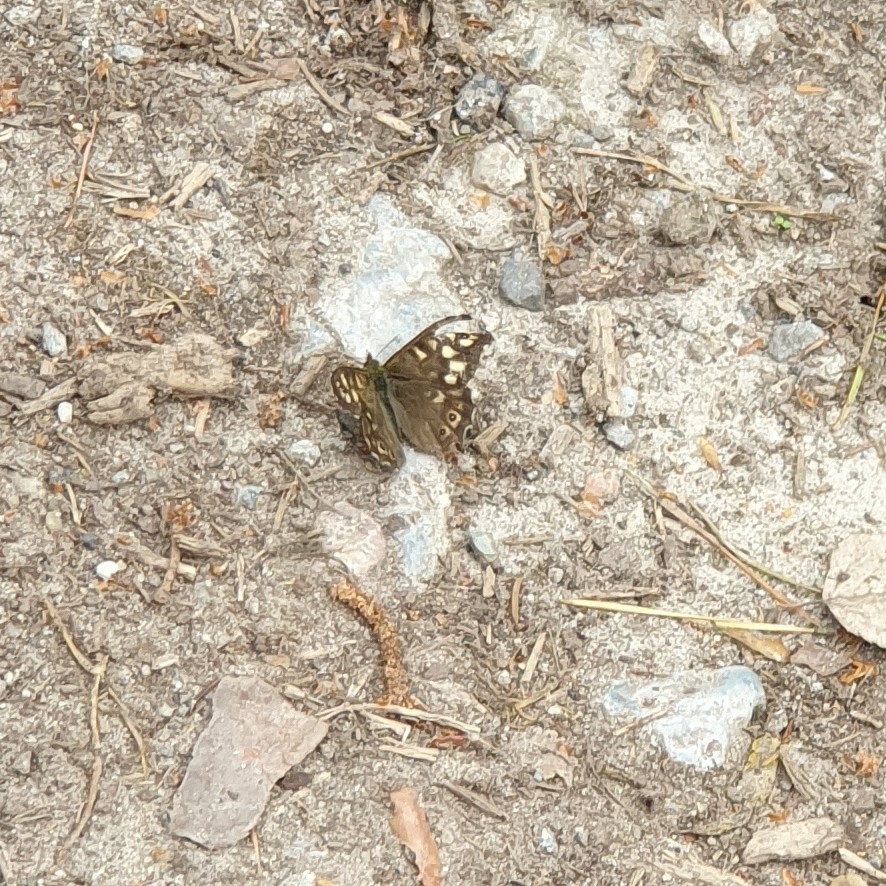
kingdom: Animalia
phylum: Arthropoda
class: Insecta
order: Lepidoptera
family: Nymphalidae
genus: Pararge
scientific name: Pararge aegeria
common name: Speckled wood
